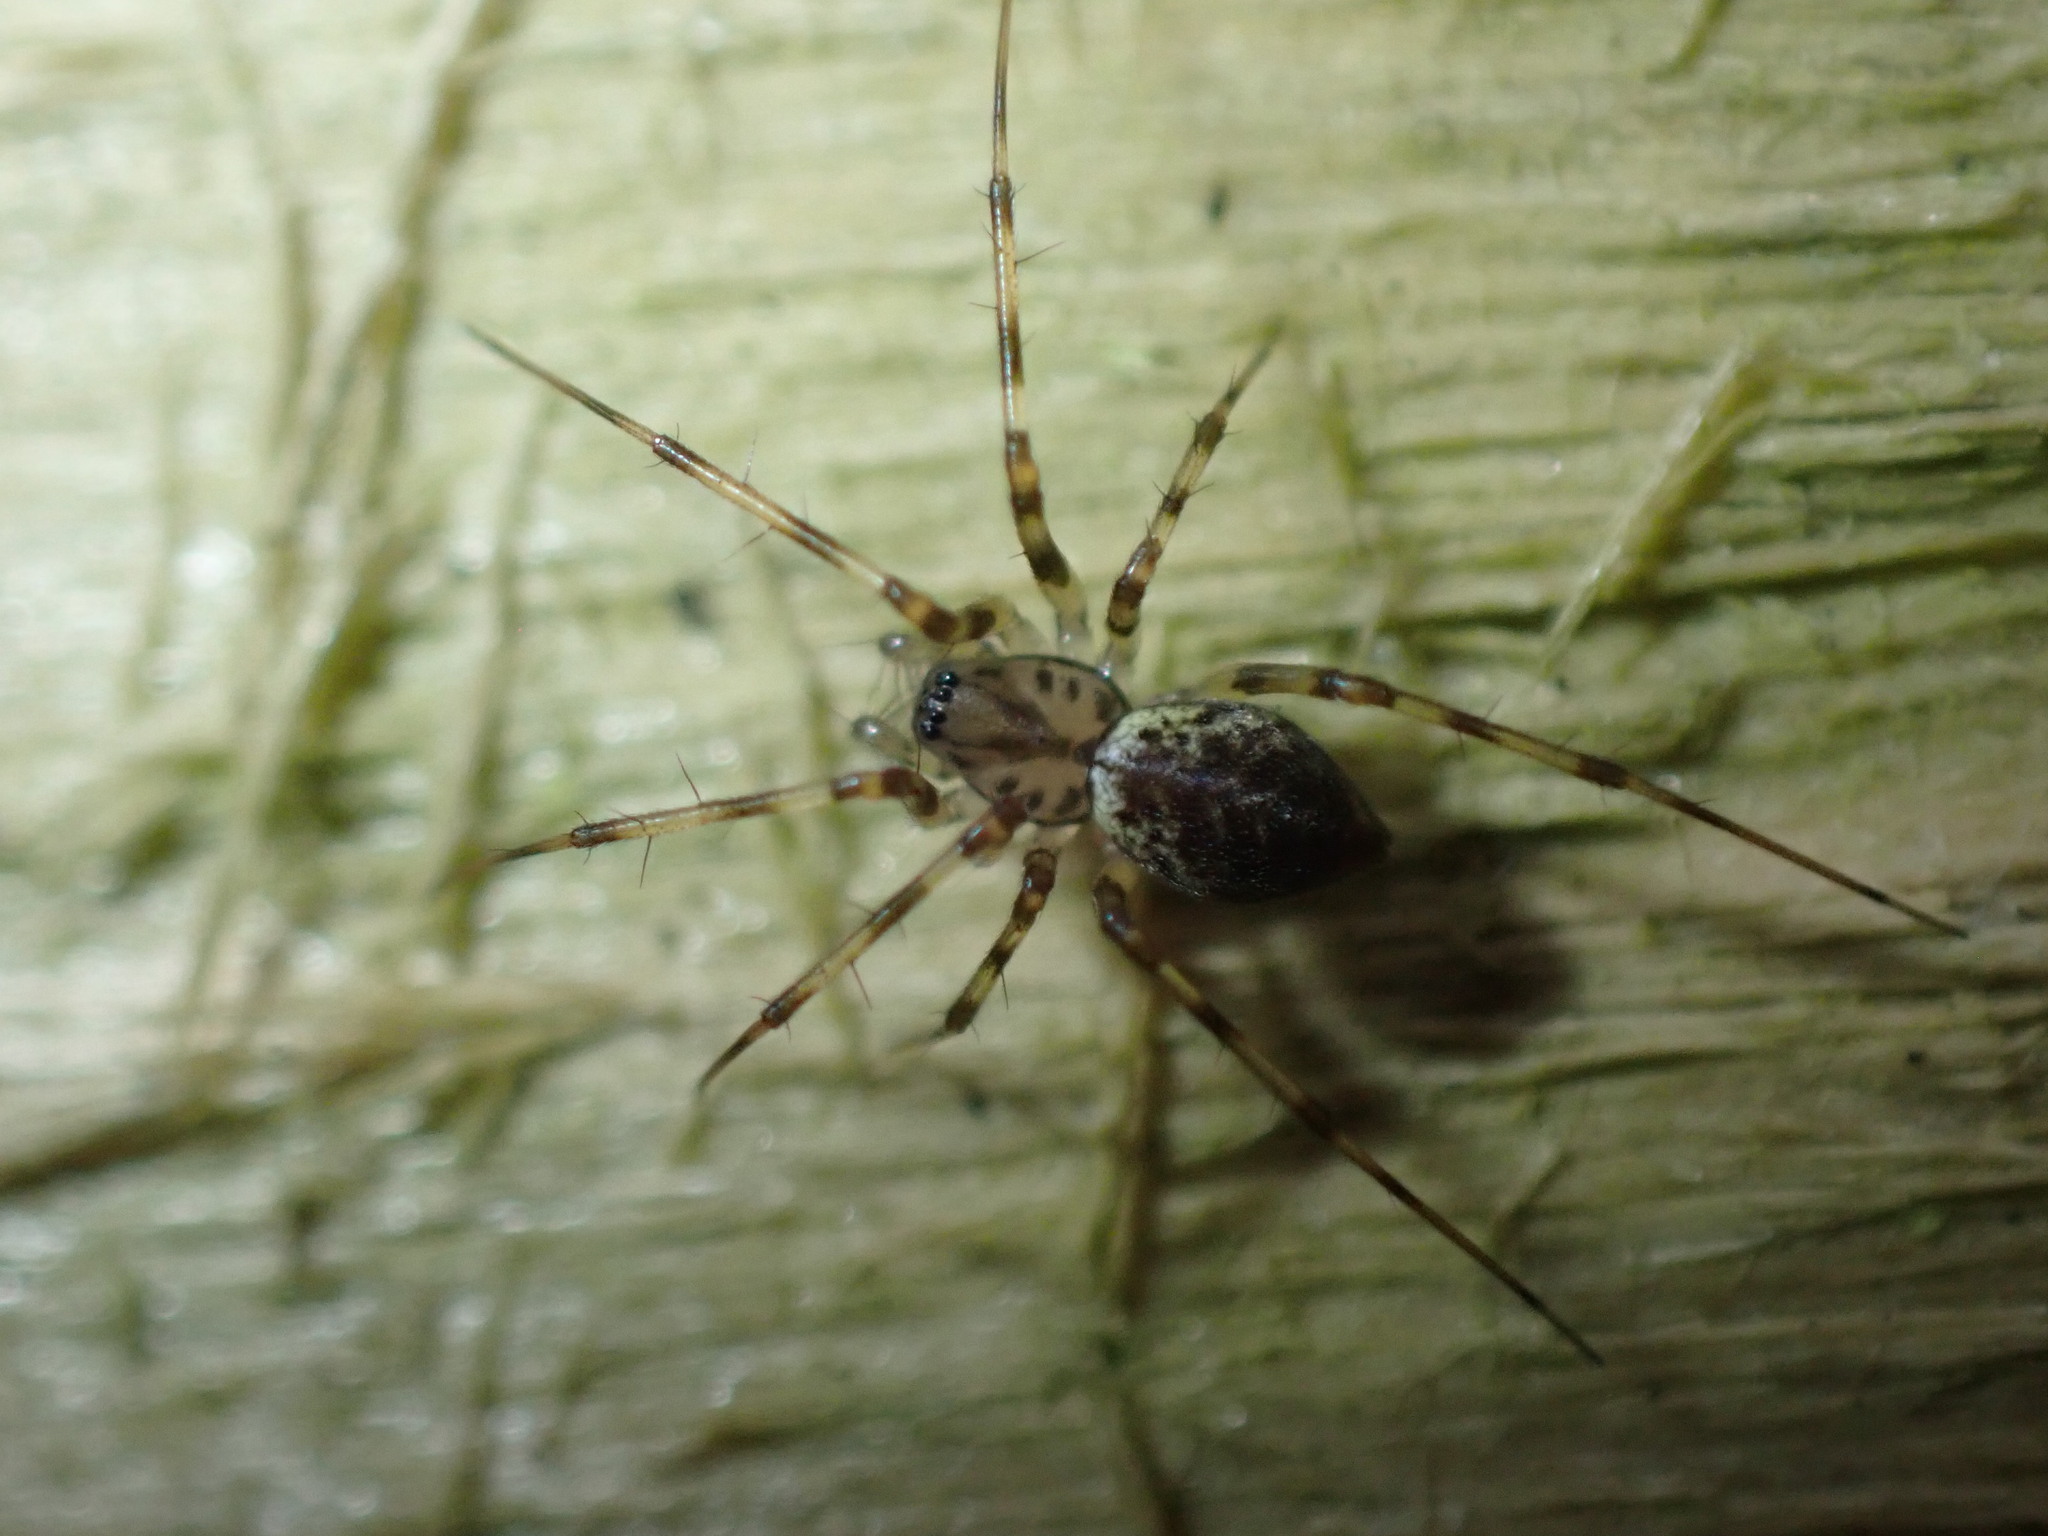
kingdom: Animalia
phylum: Arthropoda
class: Arachnida
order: Araneae
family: Linyphiidae
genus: Drapetisca
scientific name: Drapetisca socialis
